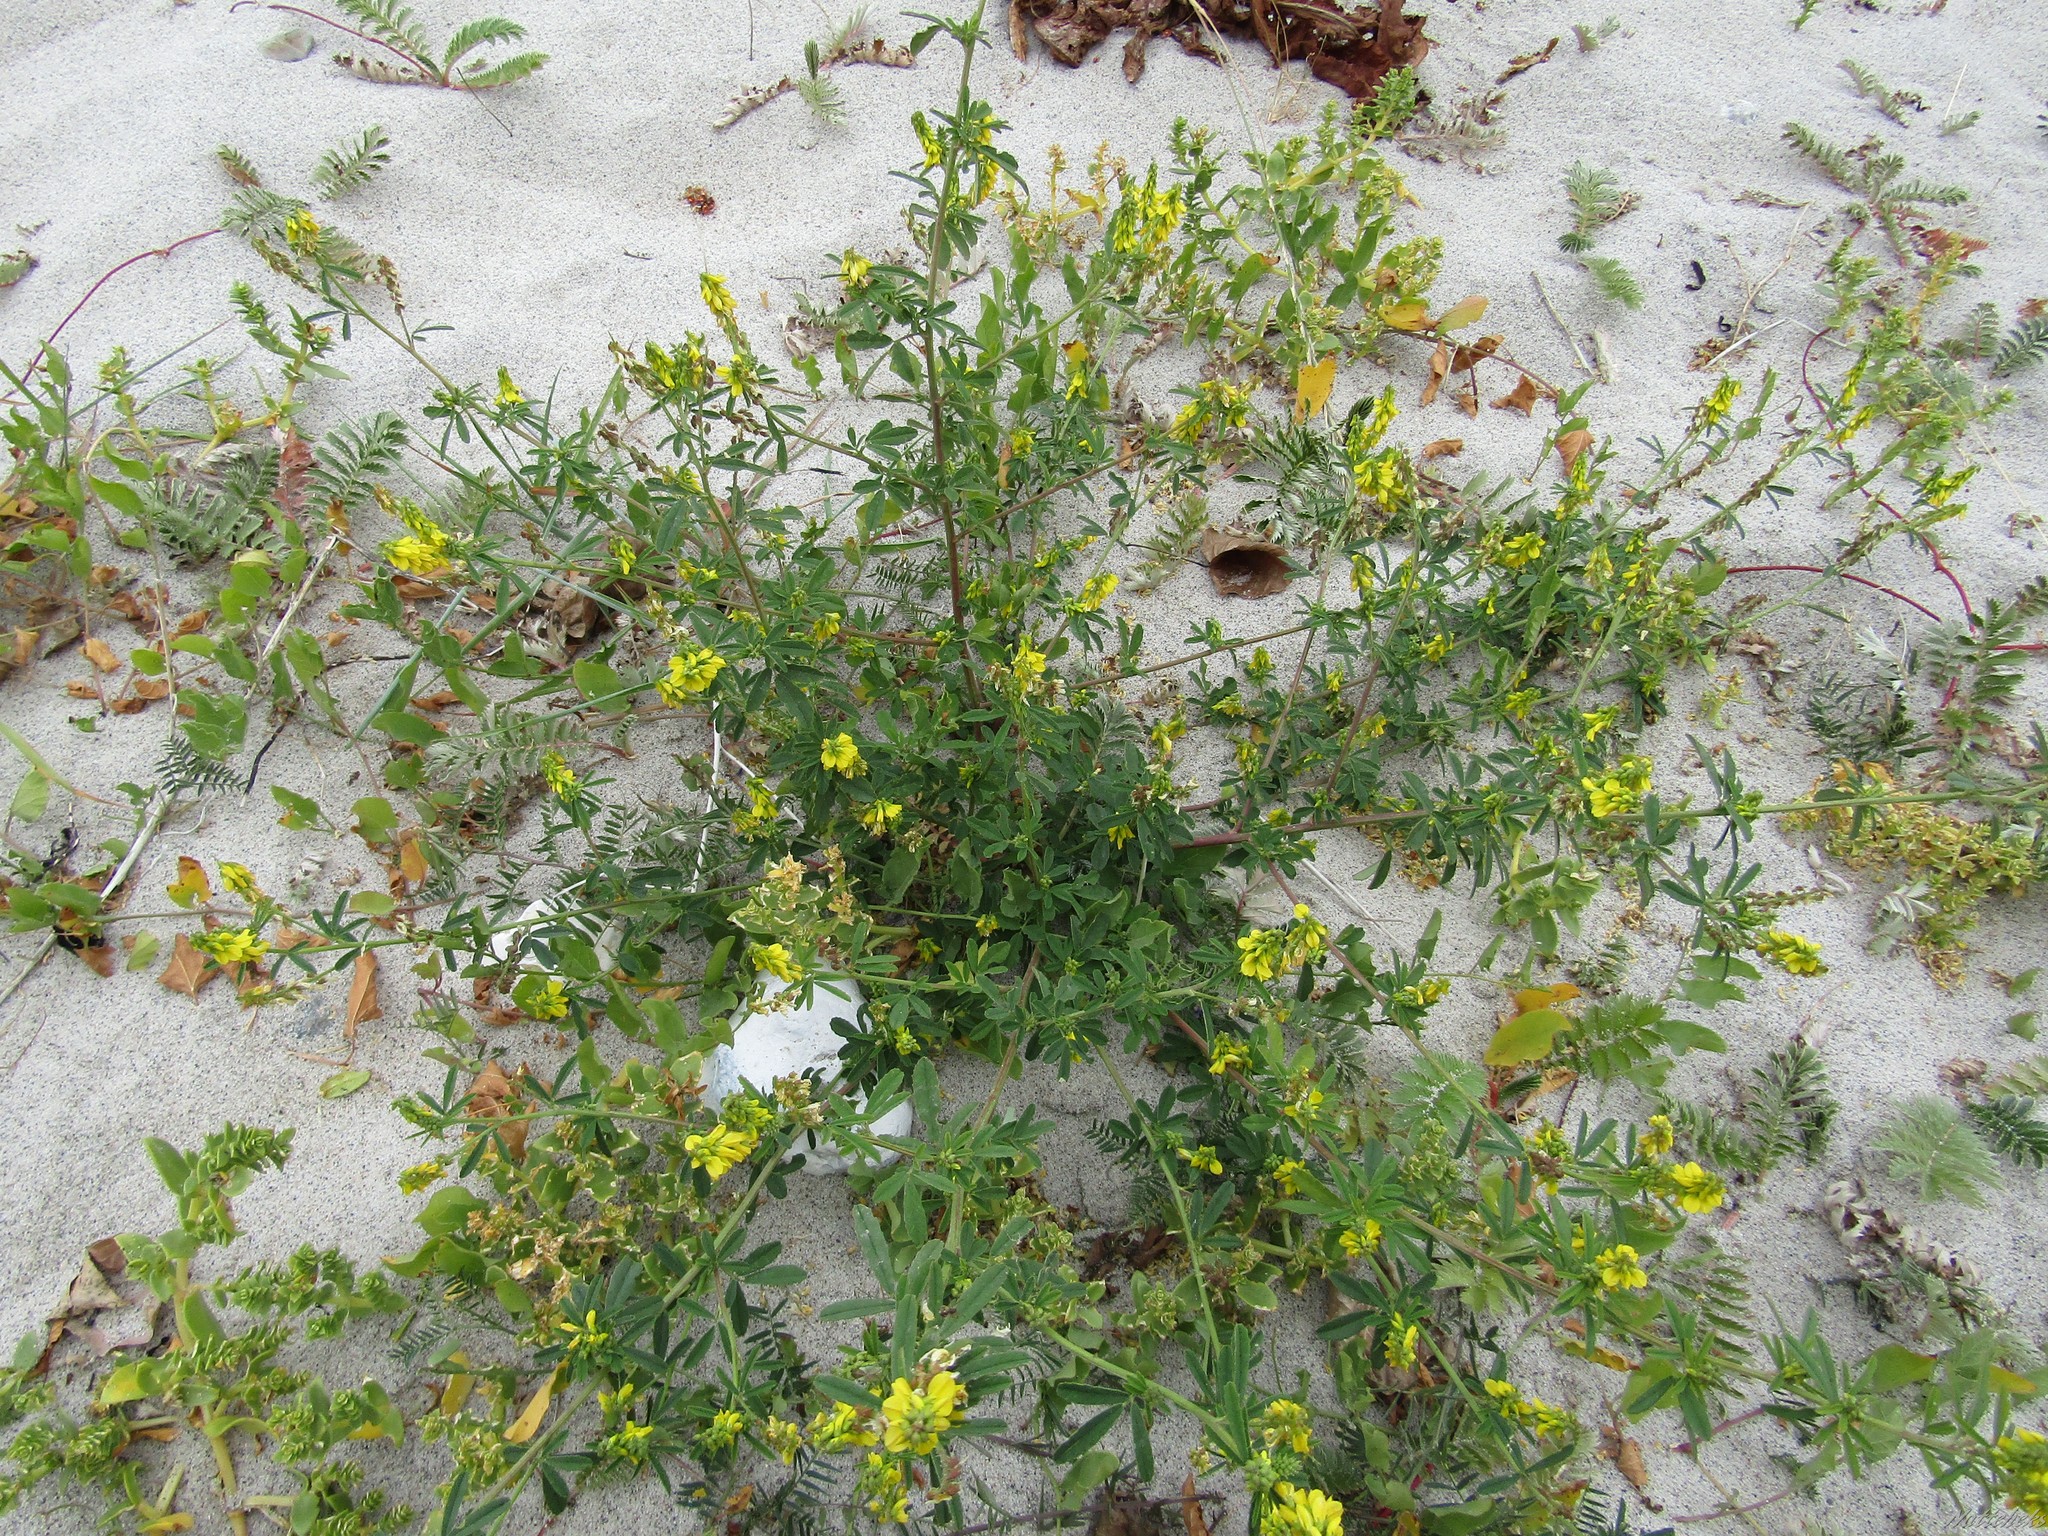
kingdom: Plantae
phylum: Tracheophyta
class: Magnoliopsida
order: Fabales
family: Fabaceae
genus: Melilotus
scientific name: Melilotus officinalis
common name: Sweetclover
